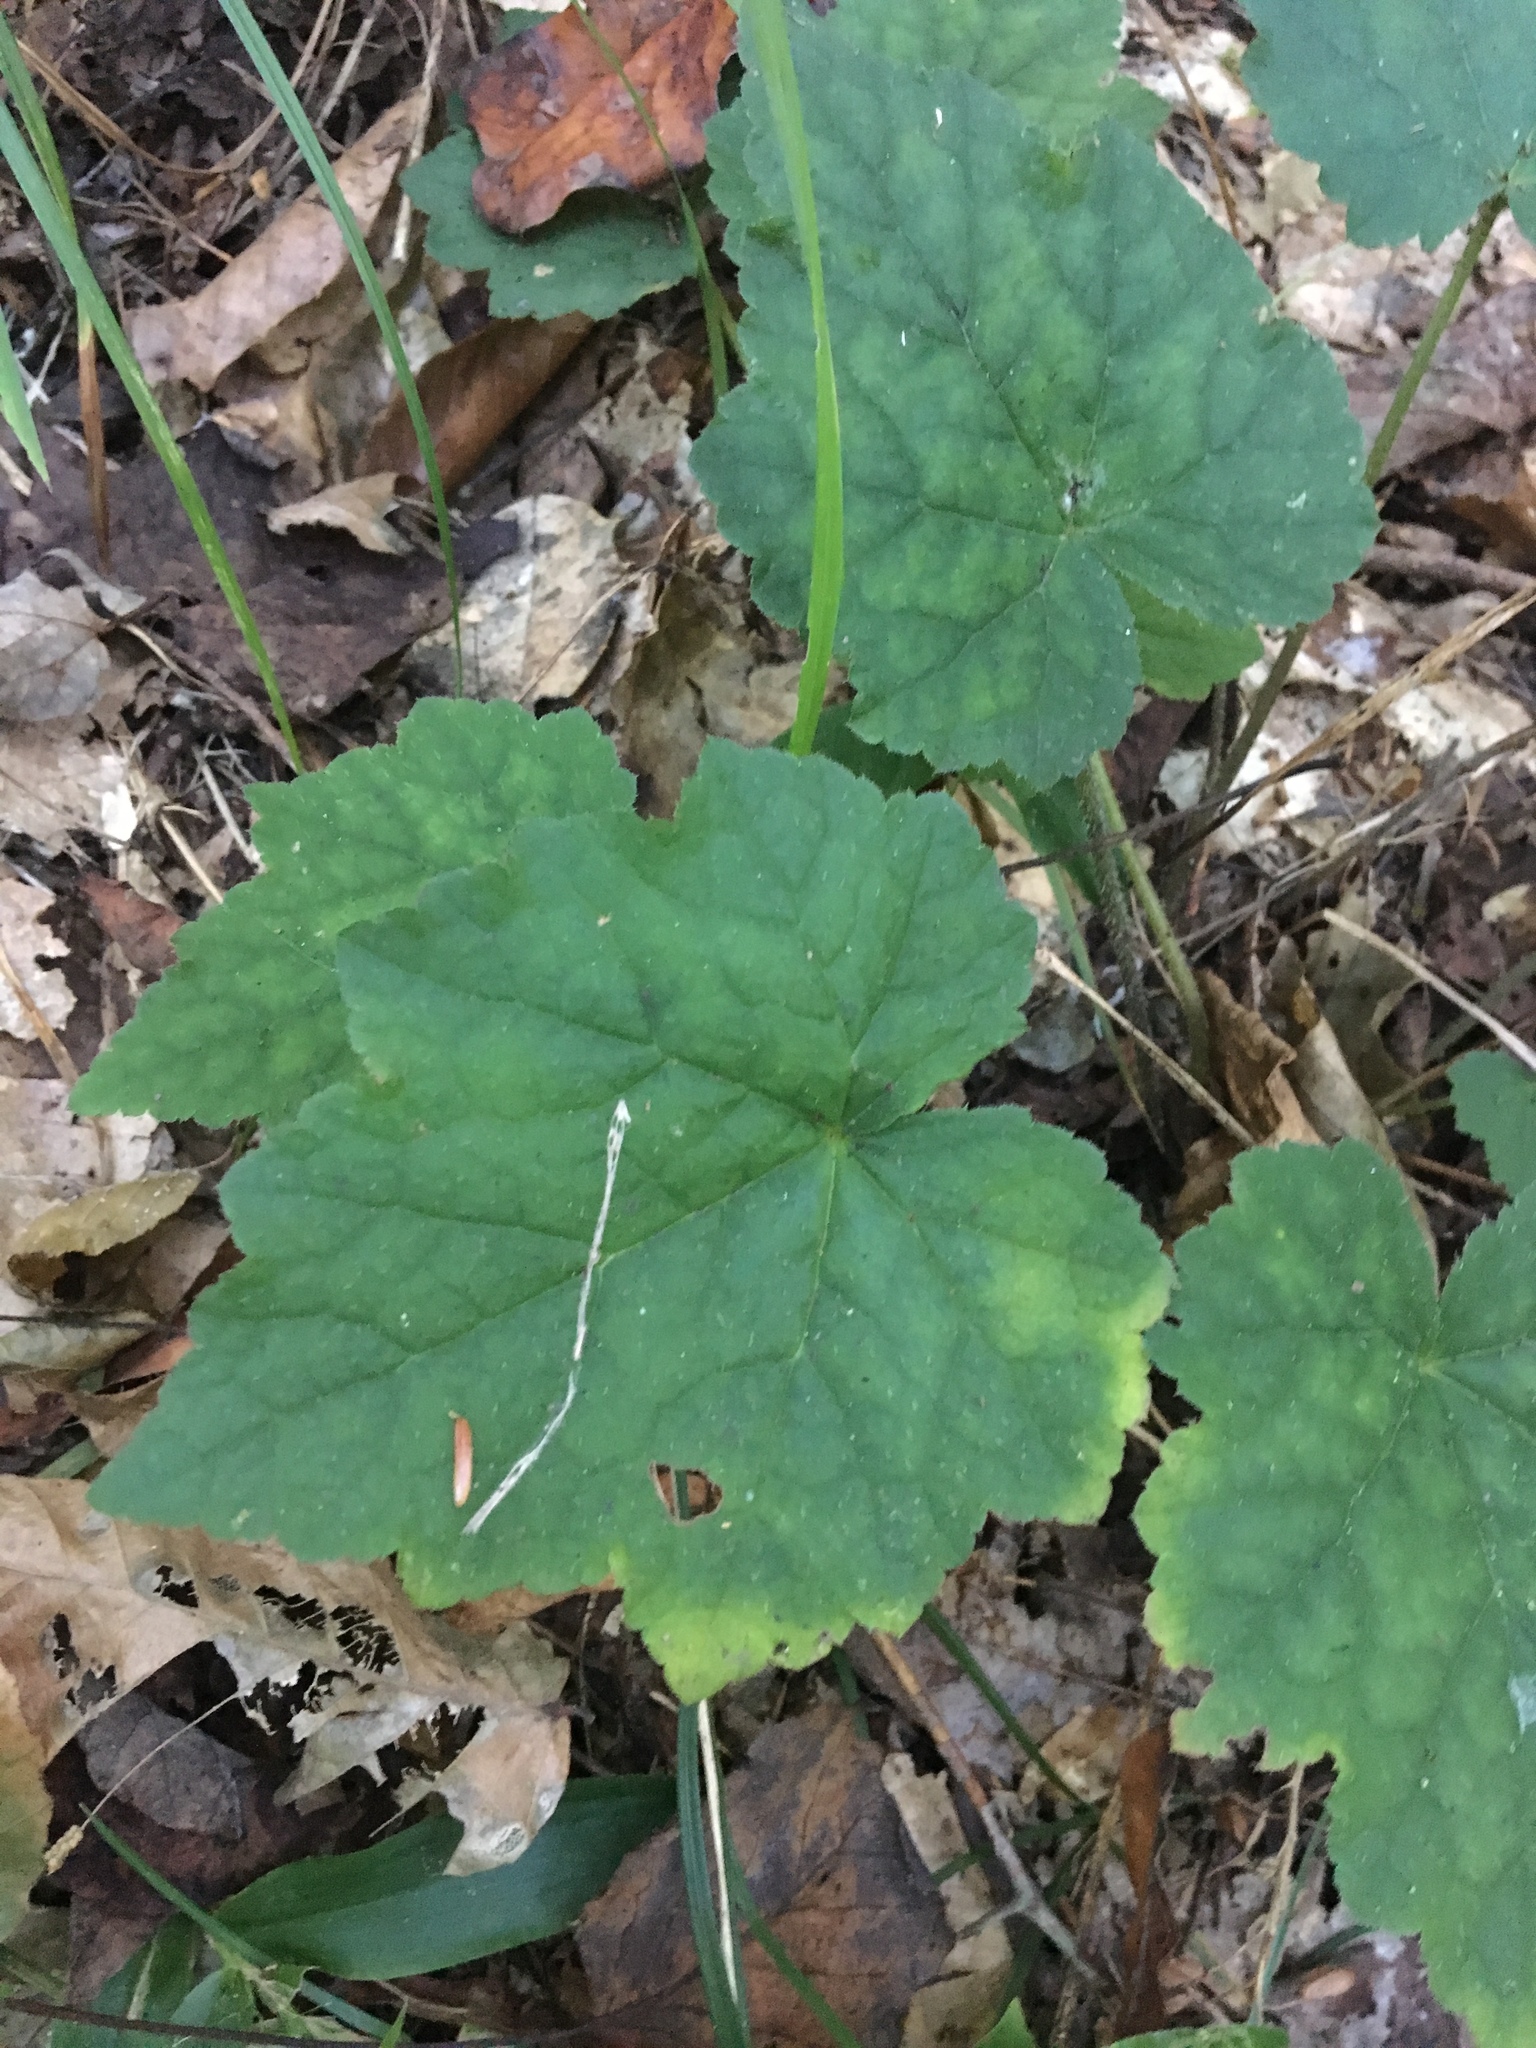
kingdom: Plantae
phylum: Tracheophyta
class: Magnoliopsida
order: Saxifragales
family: Saxifragaceae
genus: Tiarella
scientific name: Tiarella wherryi
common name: Tufted foamflower
